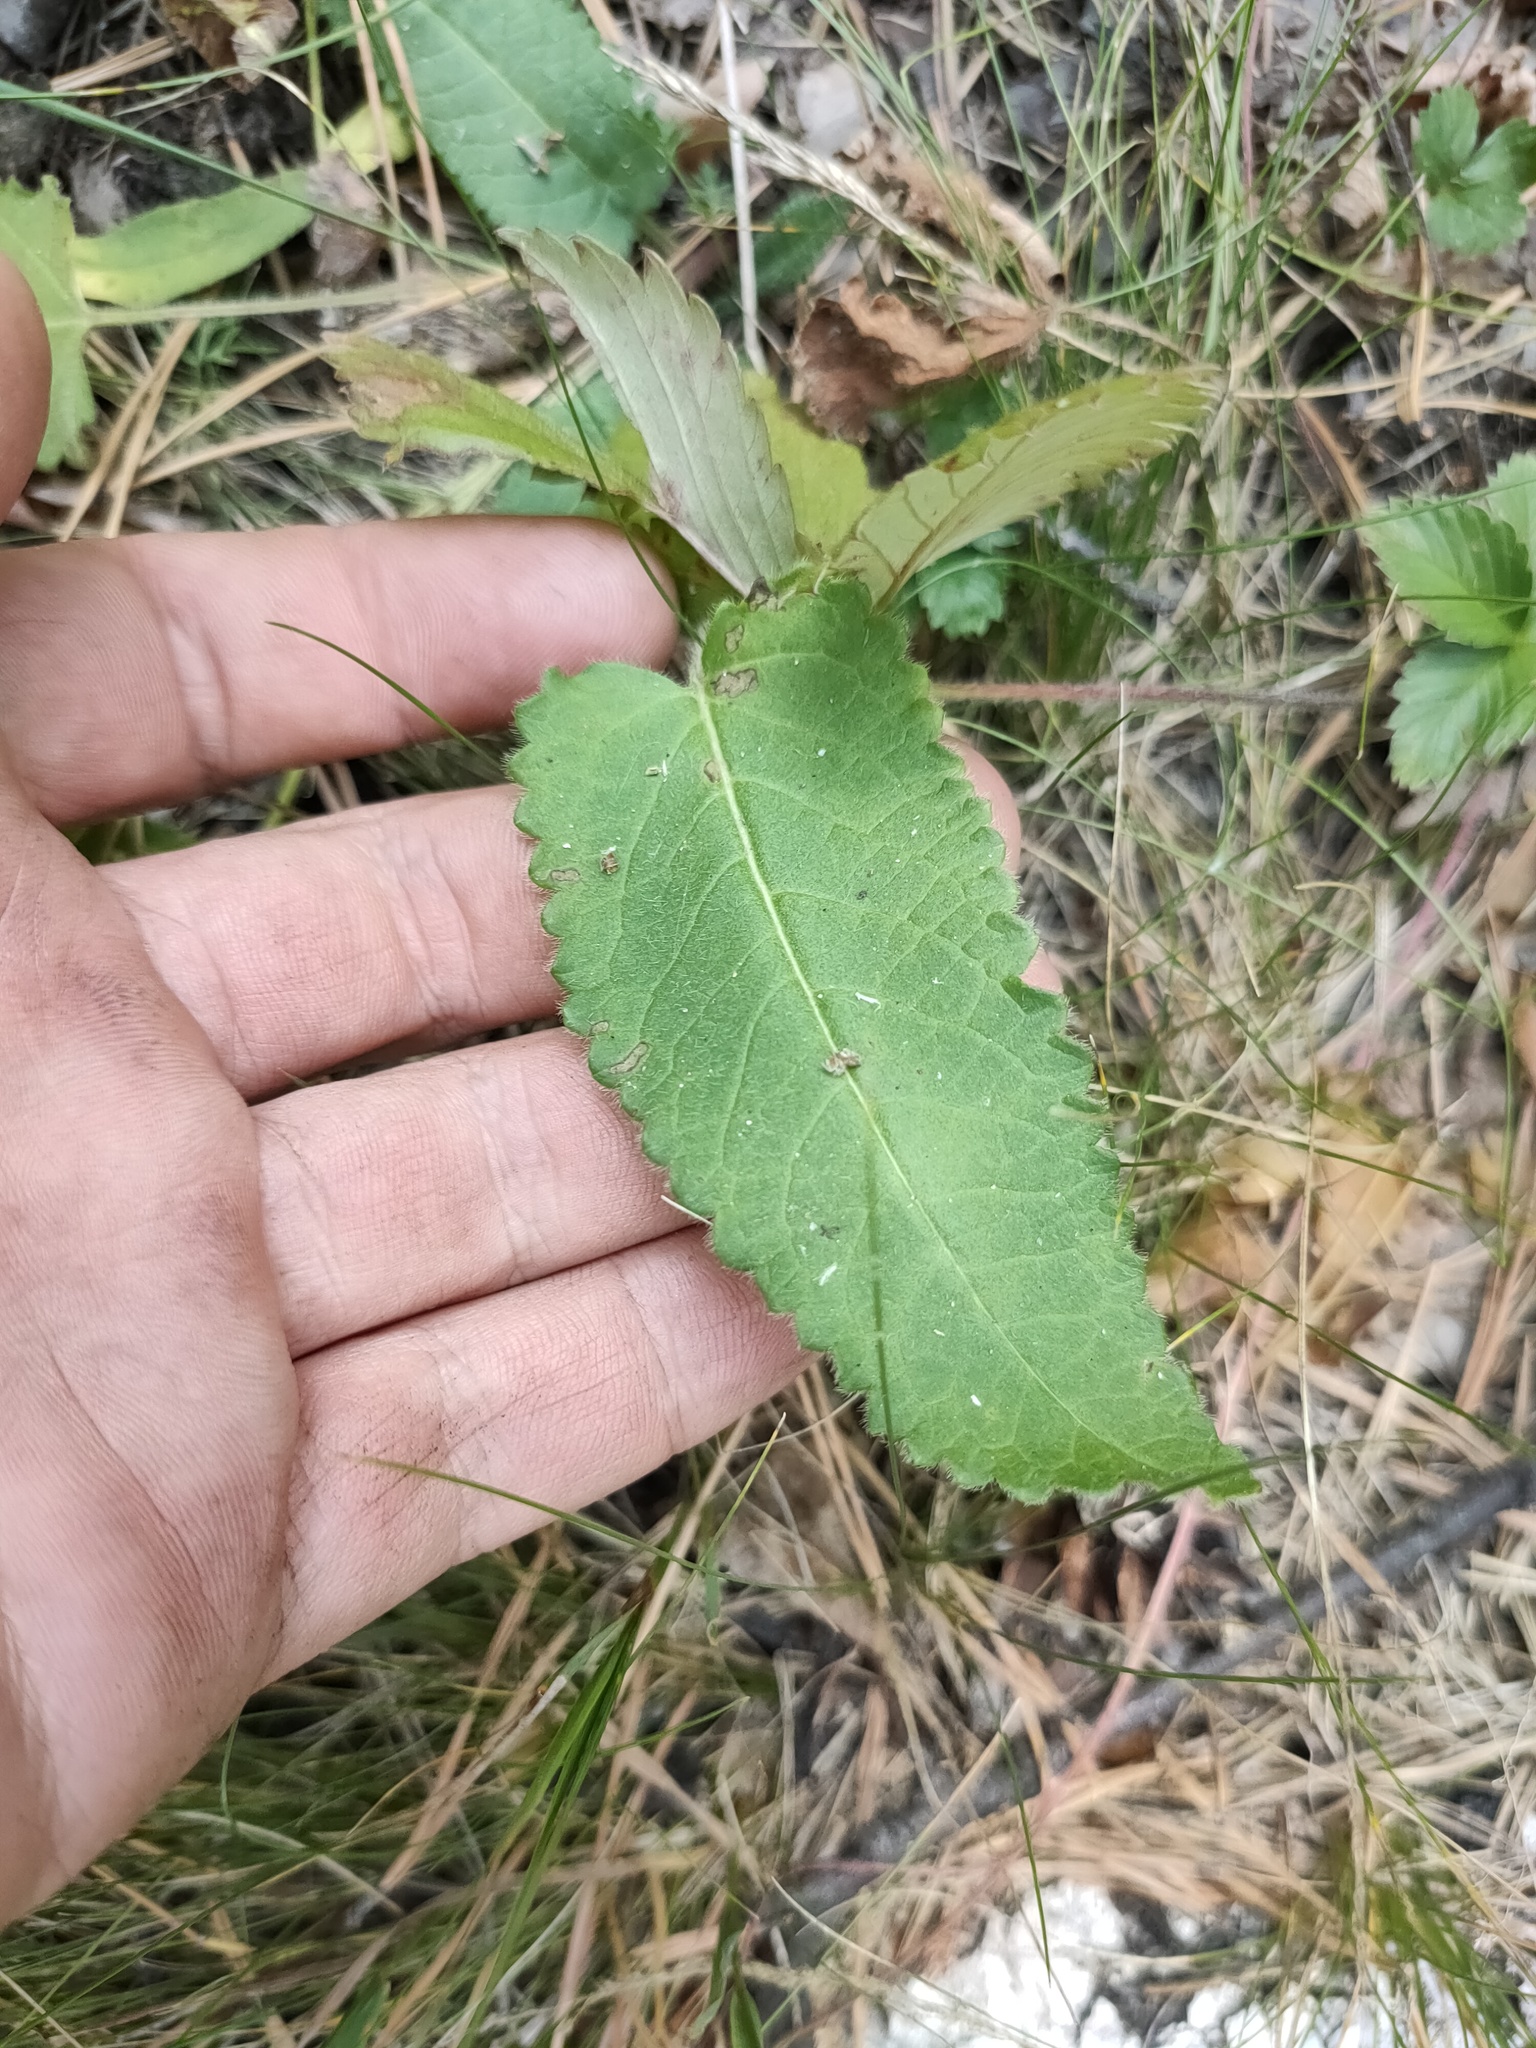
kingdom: Plantae
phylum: Tracheophyta
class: Magnoliopsida
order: Lamiales
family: Lamiaceae
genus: Betonica
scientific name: Betonica officinalis
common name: Bishop's-wort
